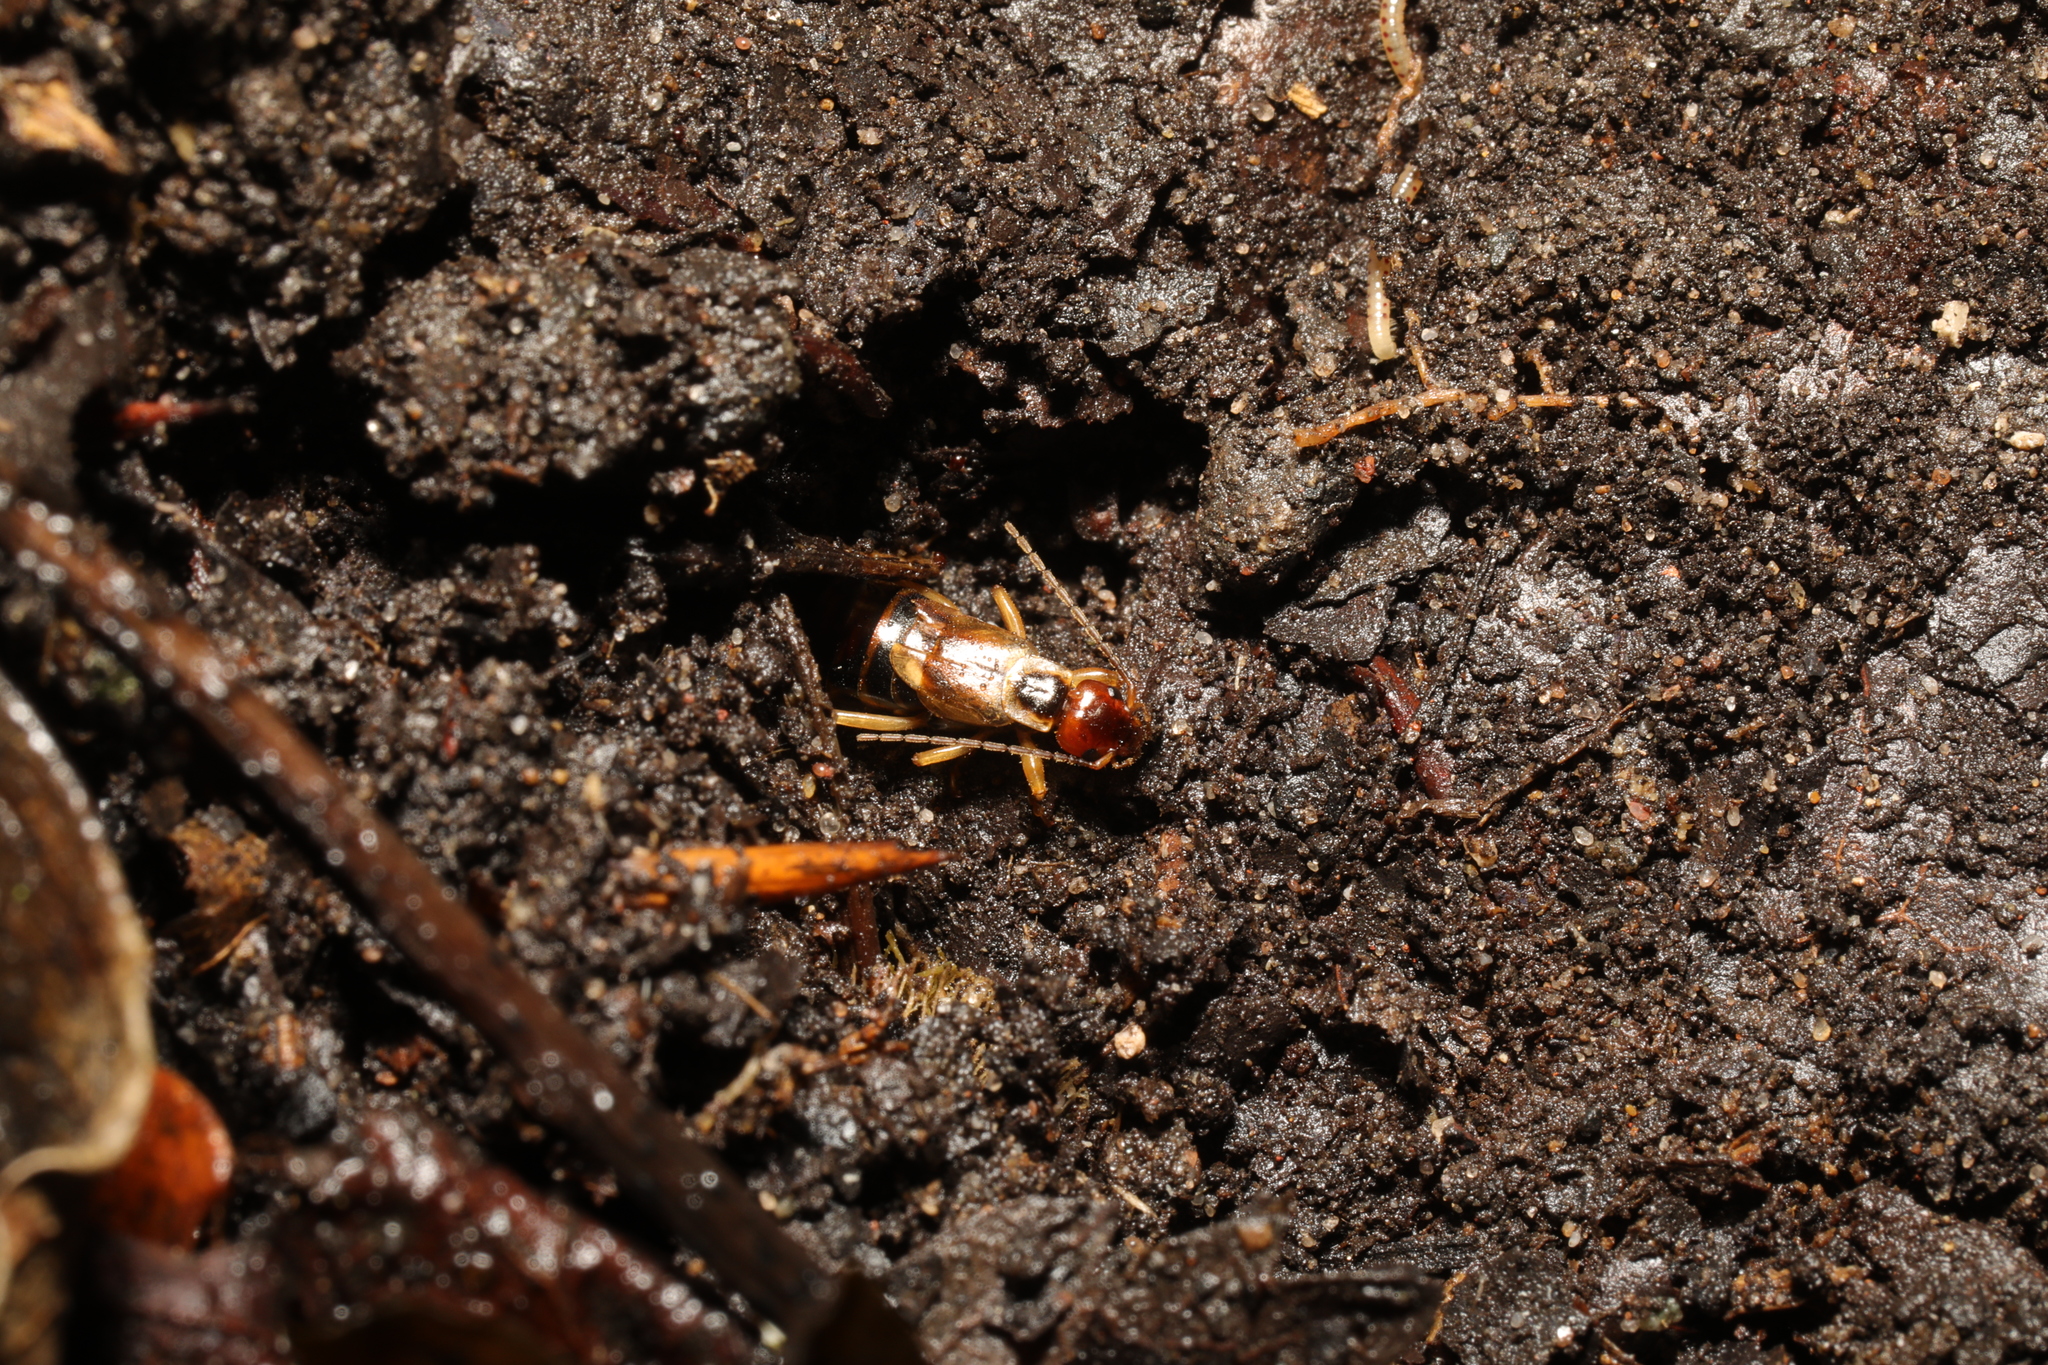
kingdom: Animalia
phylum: Arthropoda
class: Insecta
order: Dermaptera
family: Forficulidae
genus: Forficula
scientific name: Forficula
